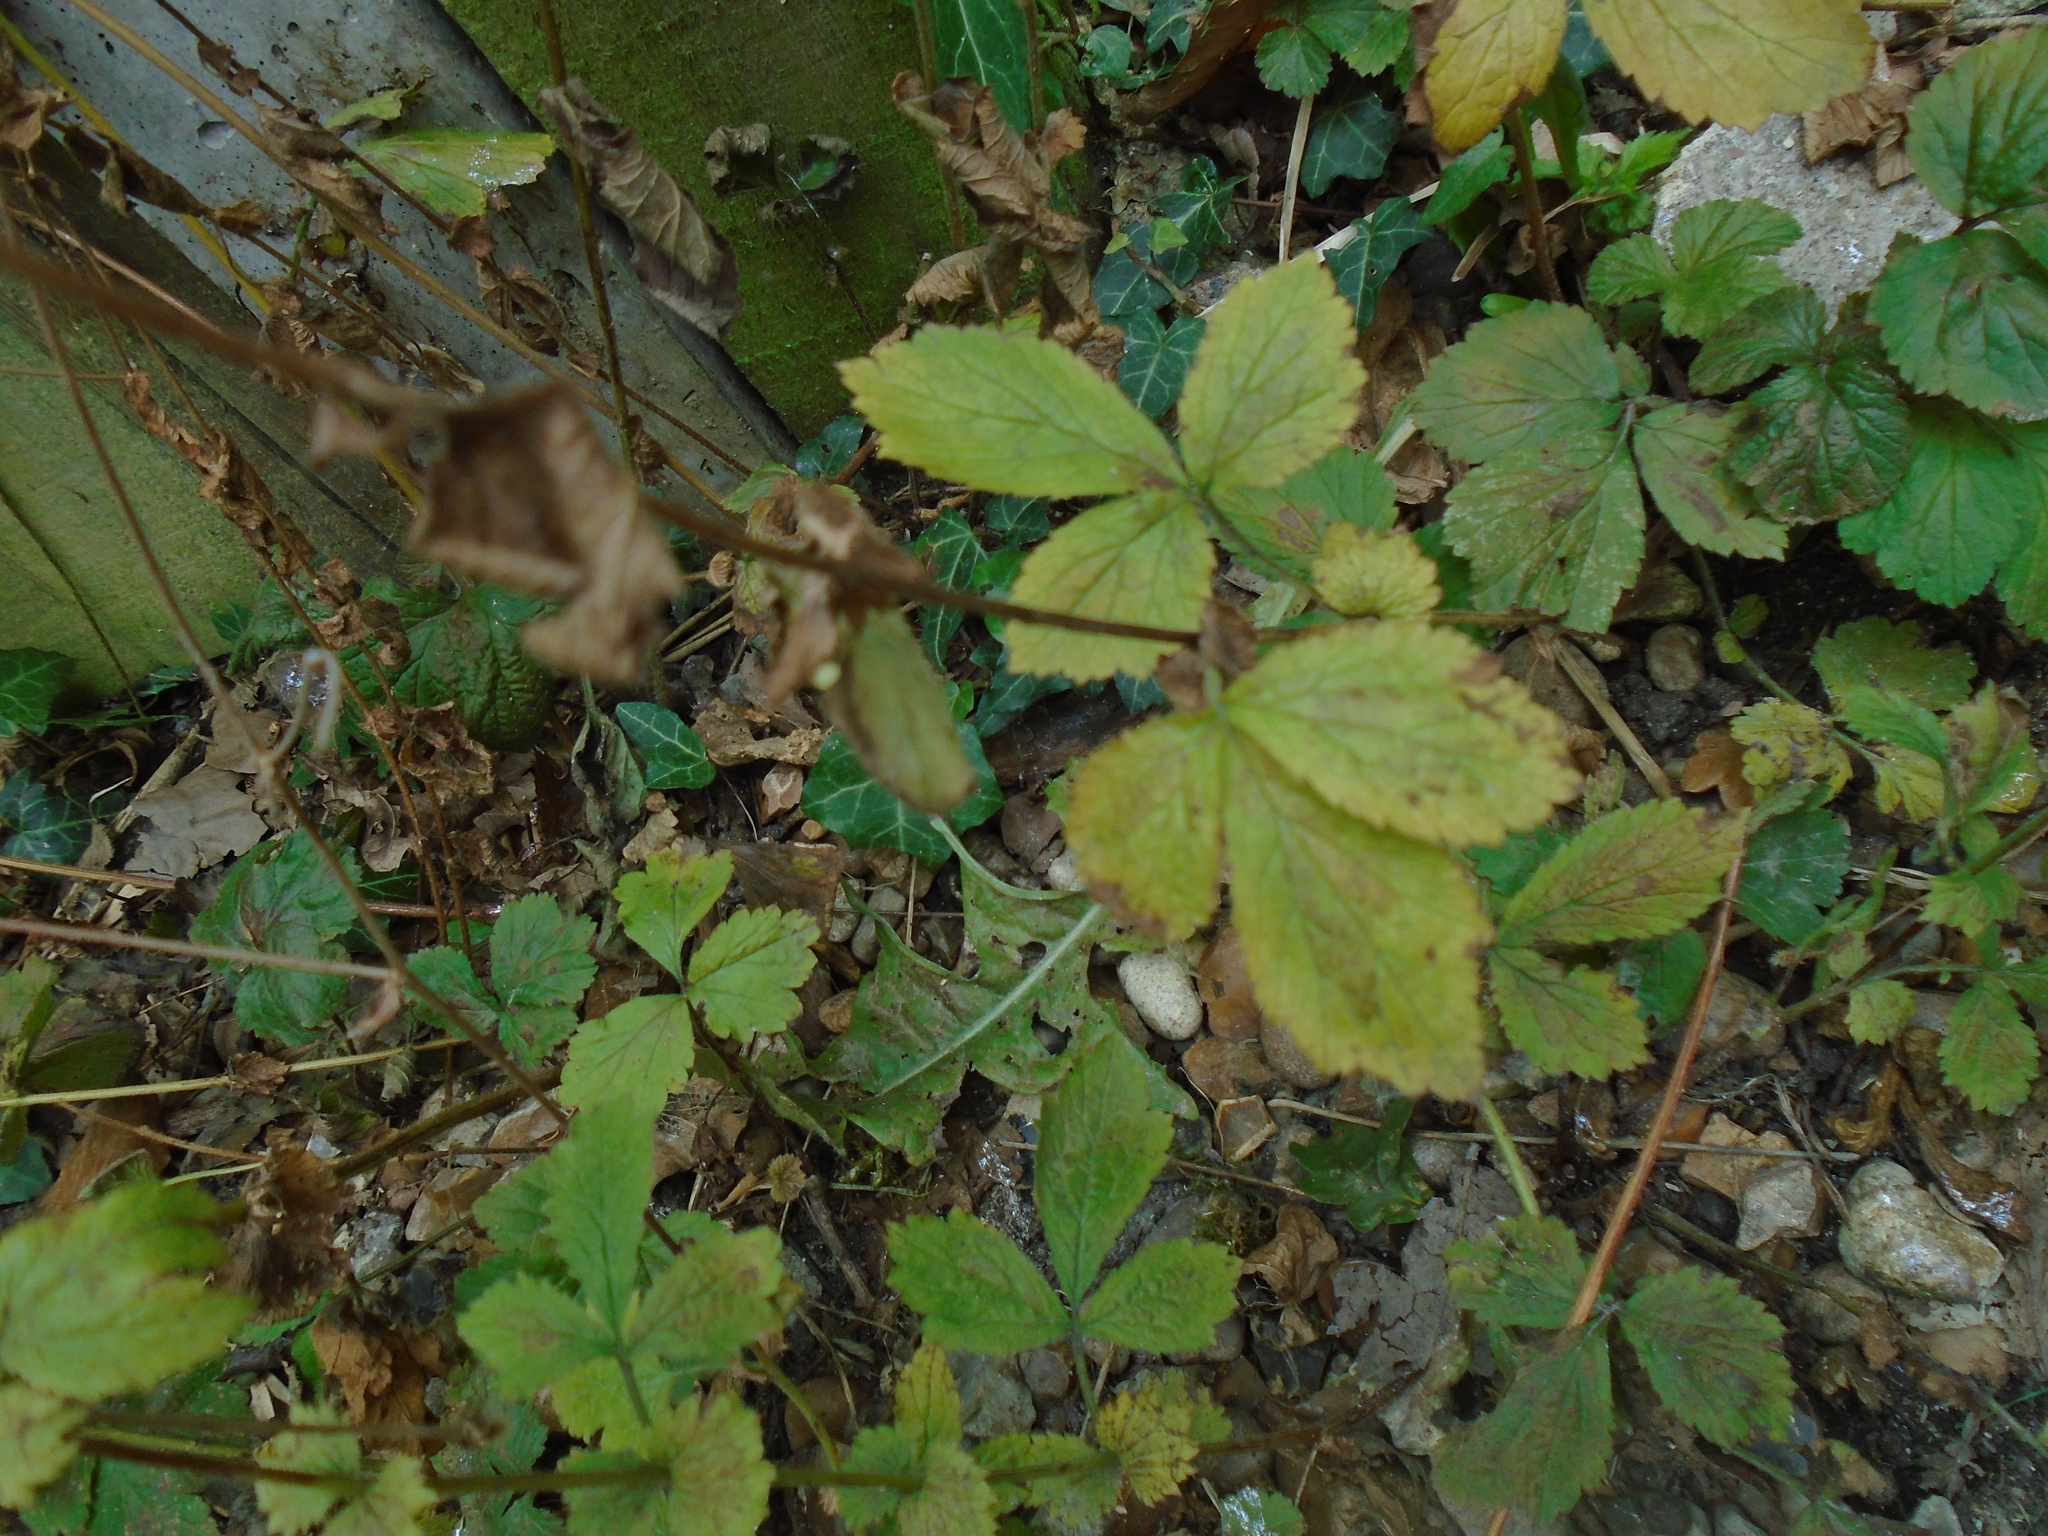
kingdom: Plantae
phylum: Tracheophyta
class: Magnoliopsida
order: Rosales
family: Rosaceae
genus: Geum
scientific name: Geum urbanum
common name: Wood avens
